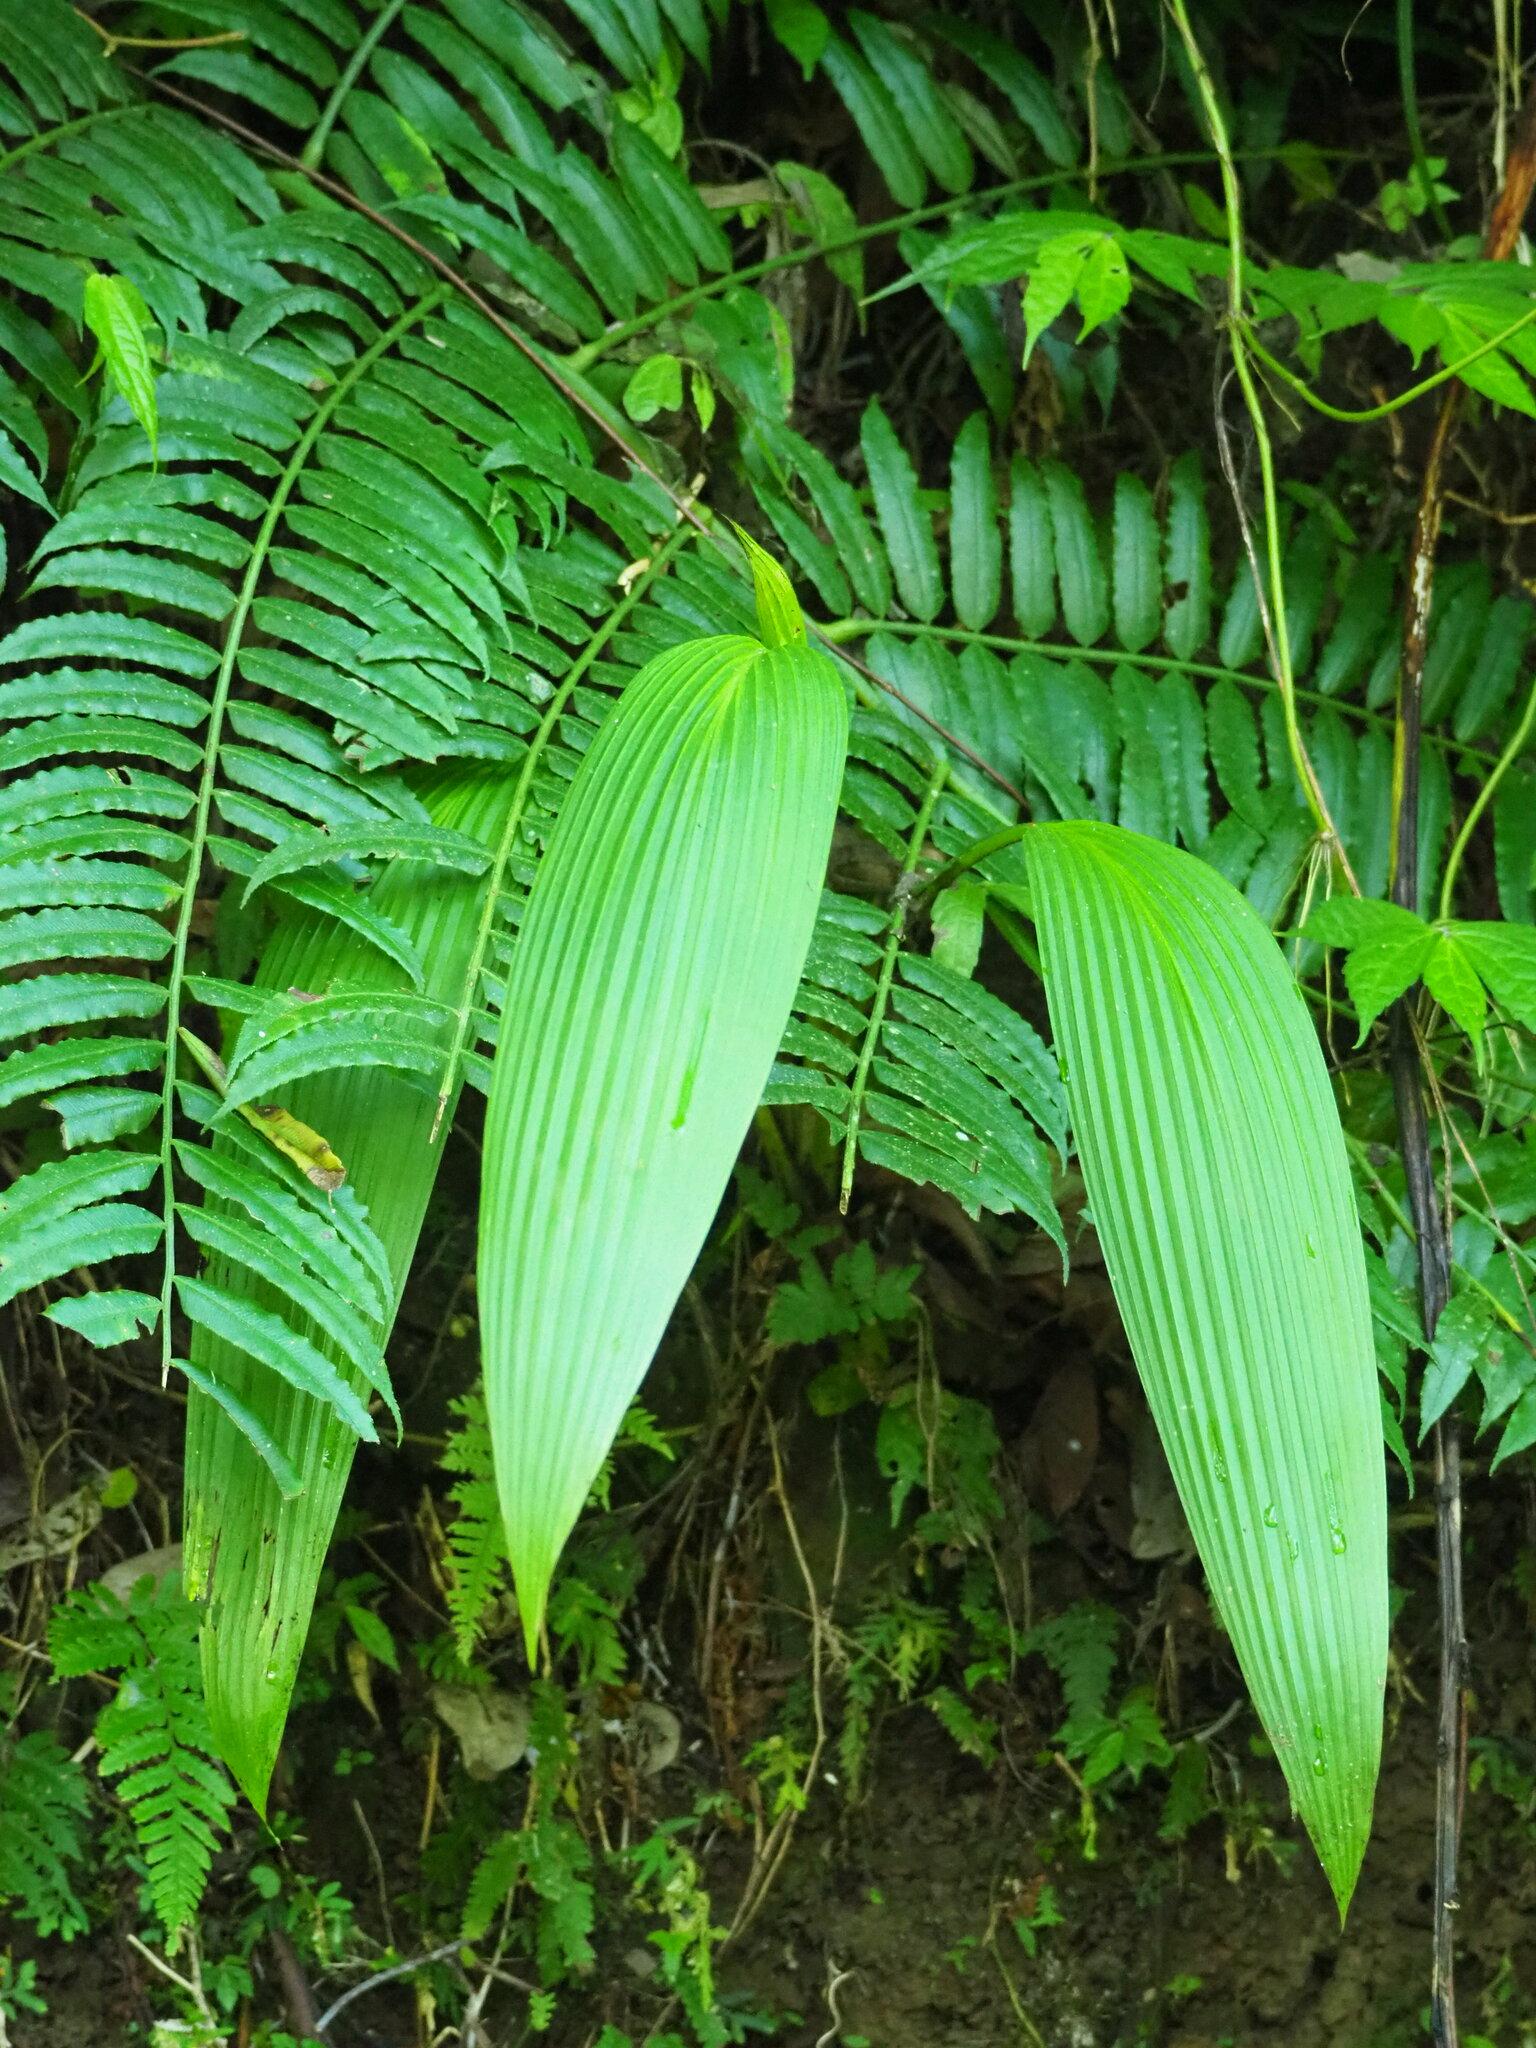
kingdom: Plantae
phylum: Tracheophyta
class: Liliopsida
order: Asparagales
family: Hypoxidaceae
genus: Curculigo
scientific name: Curculigo capitulata
